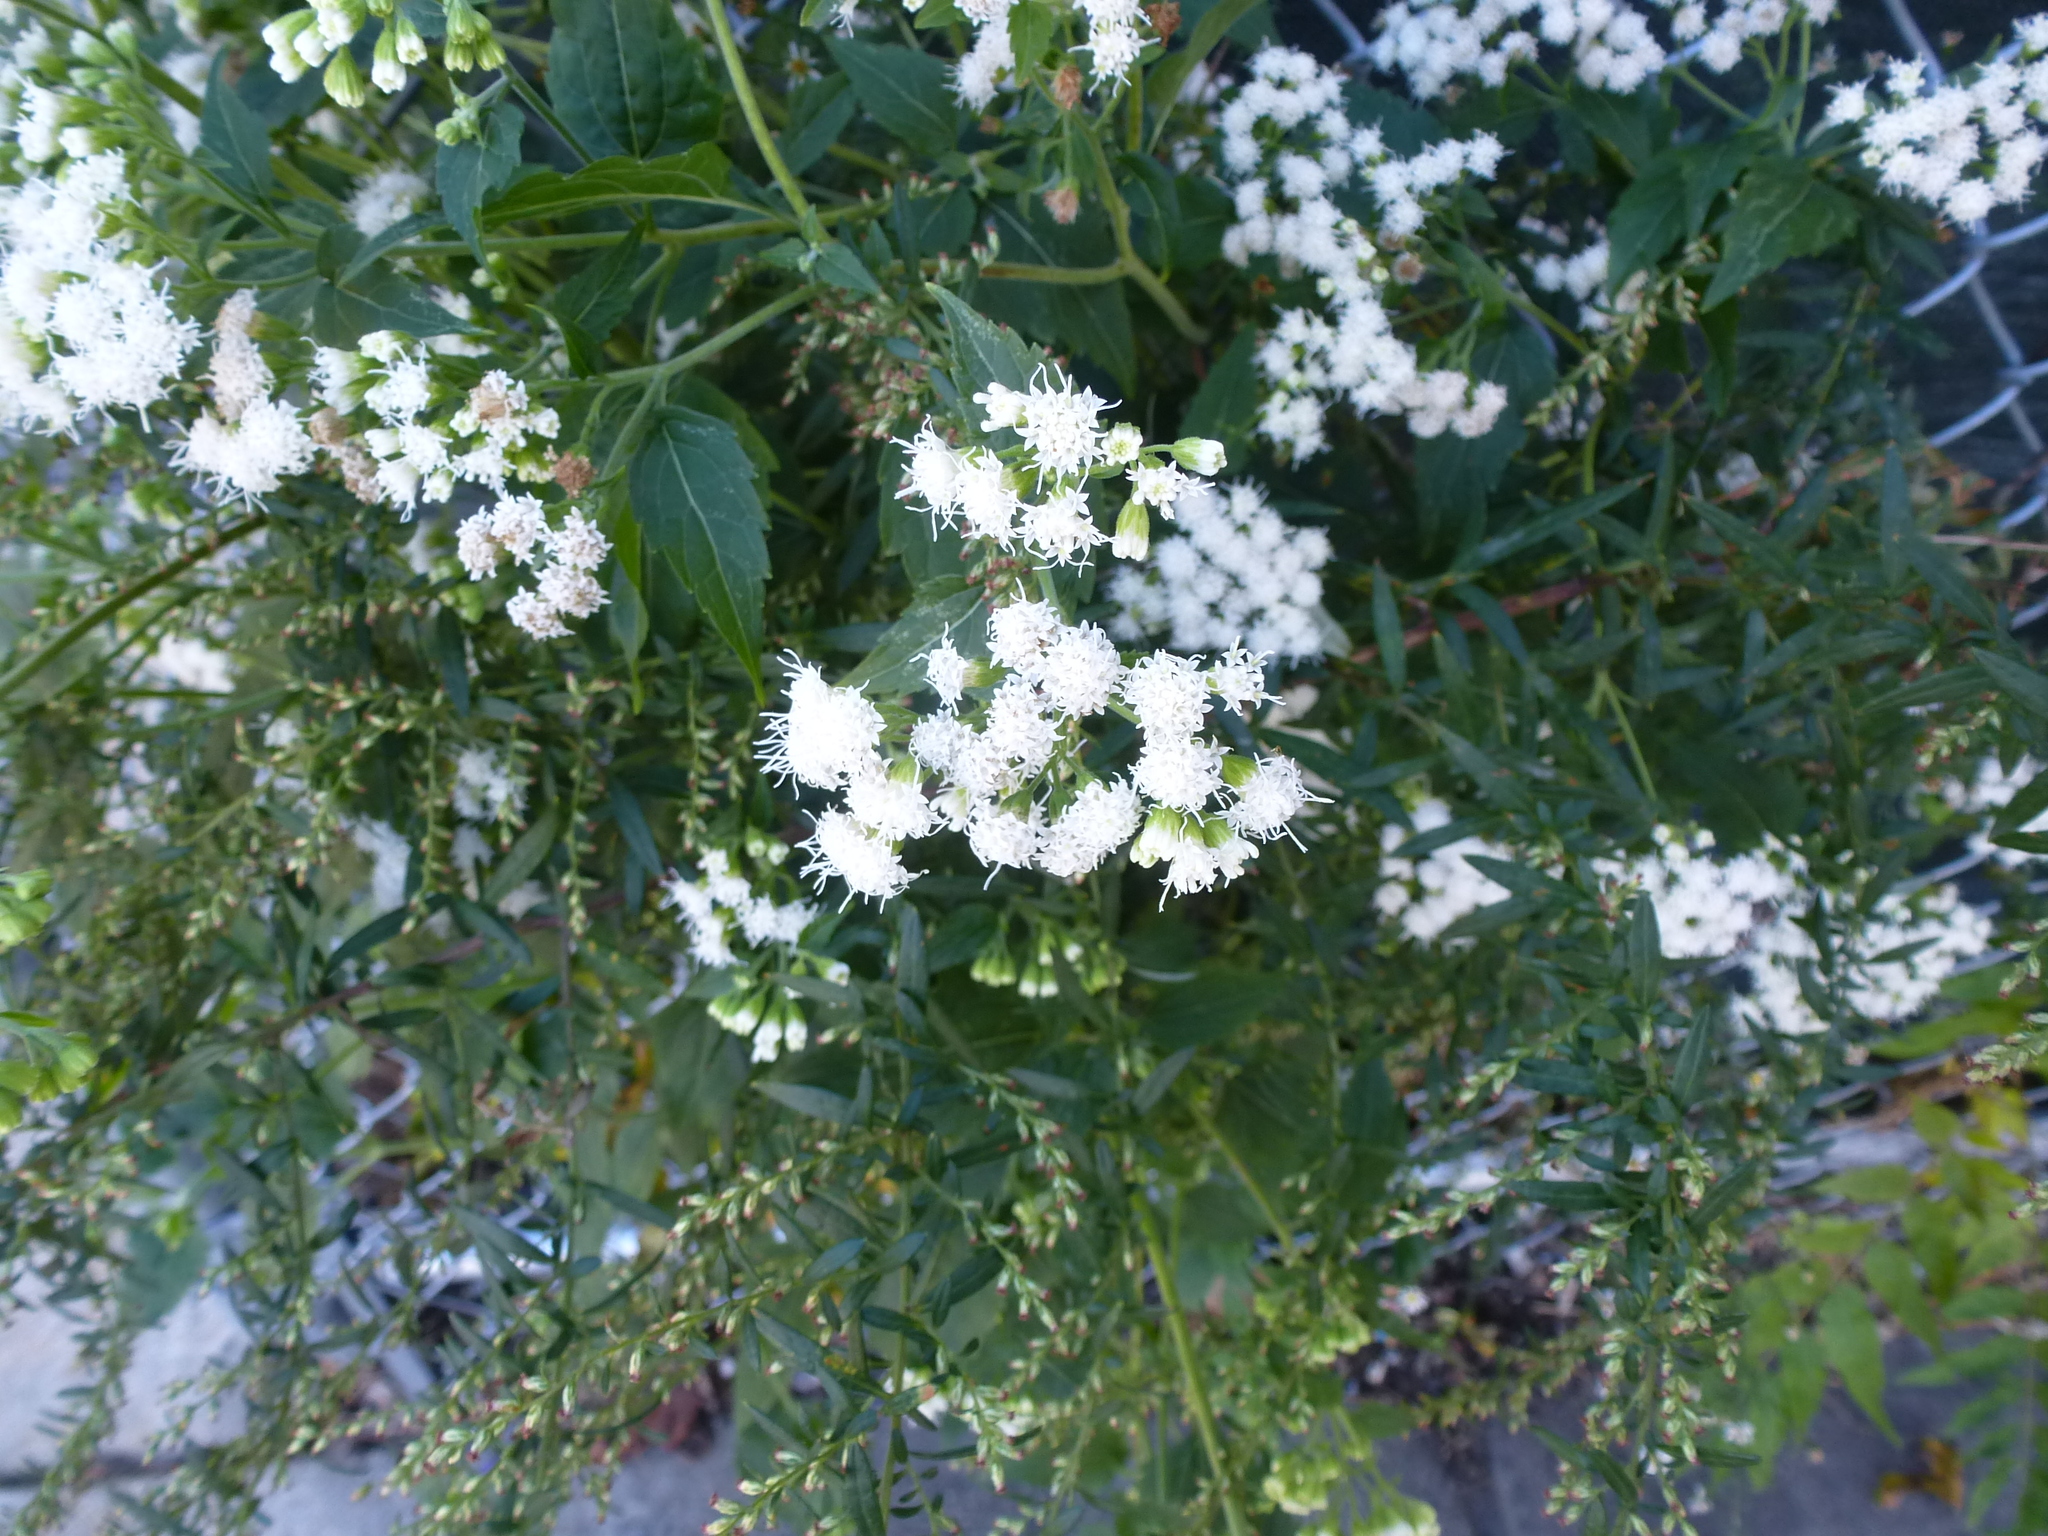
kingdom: Plantae
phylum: Tracheophyta
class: Magnoliopsida
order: Asterales
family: Asteraceae
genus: Ageratina
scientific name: Ageratina altissima
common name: White snakeroot
